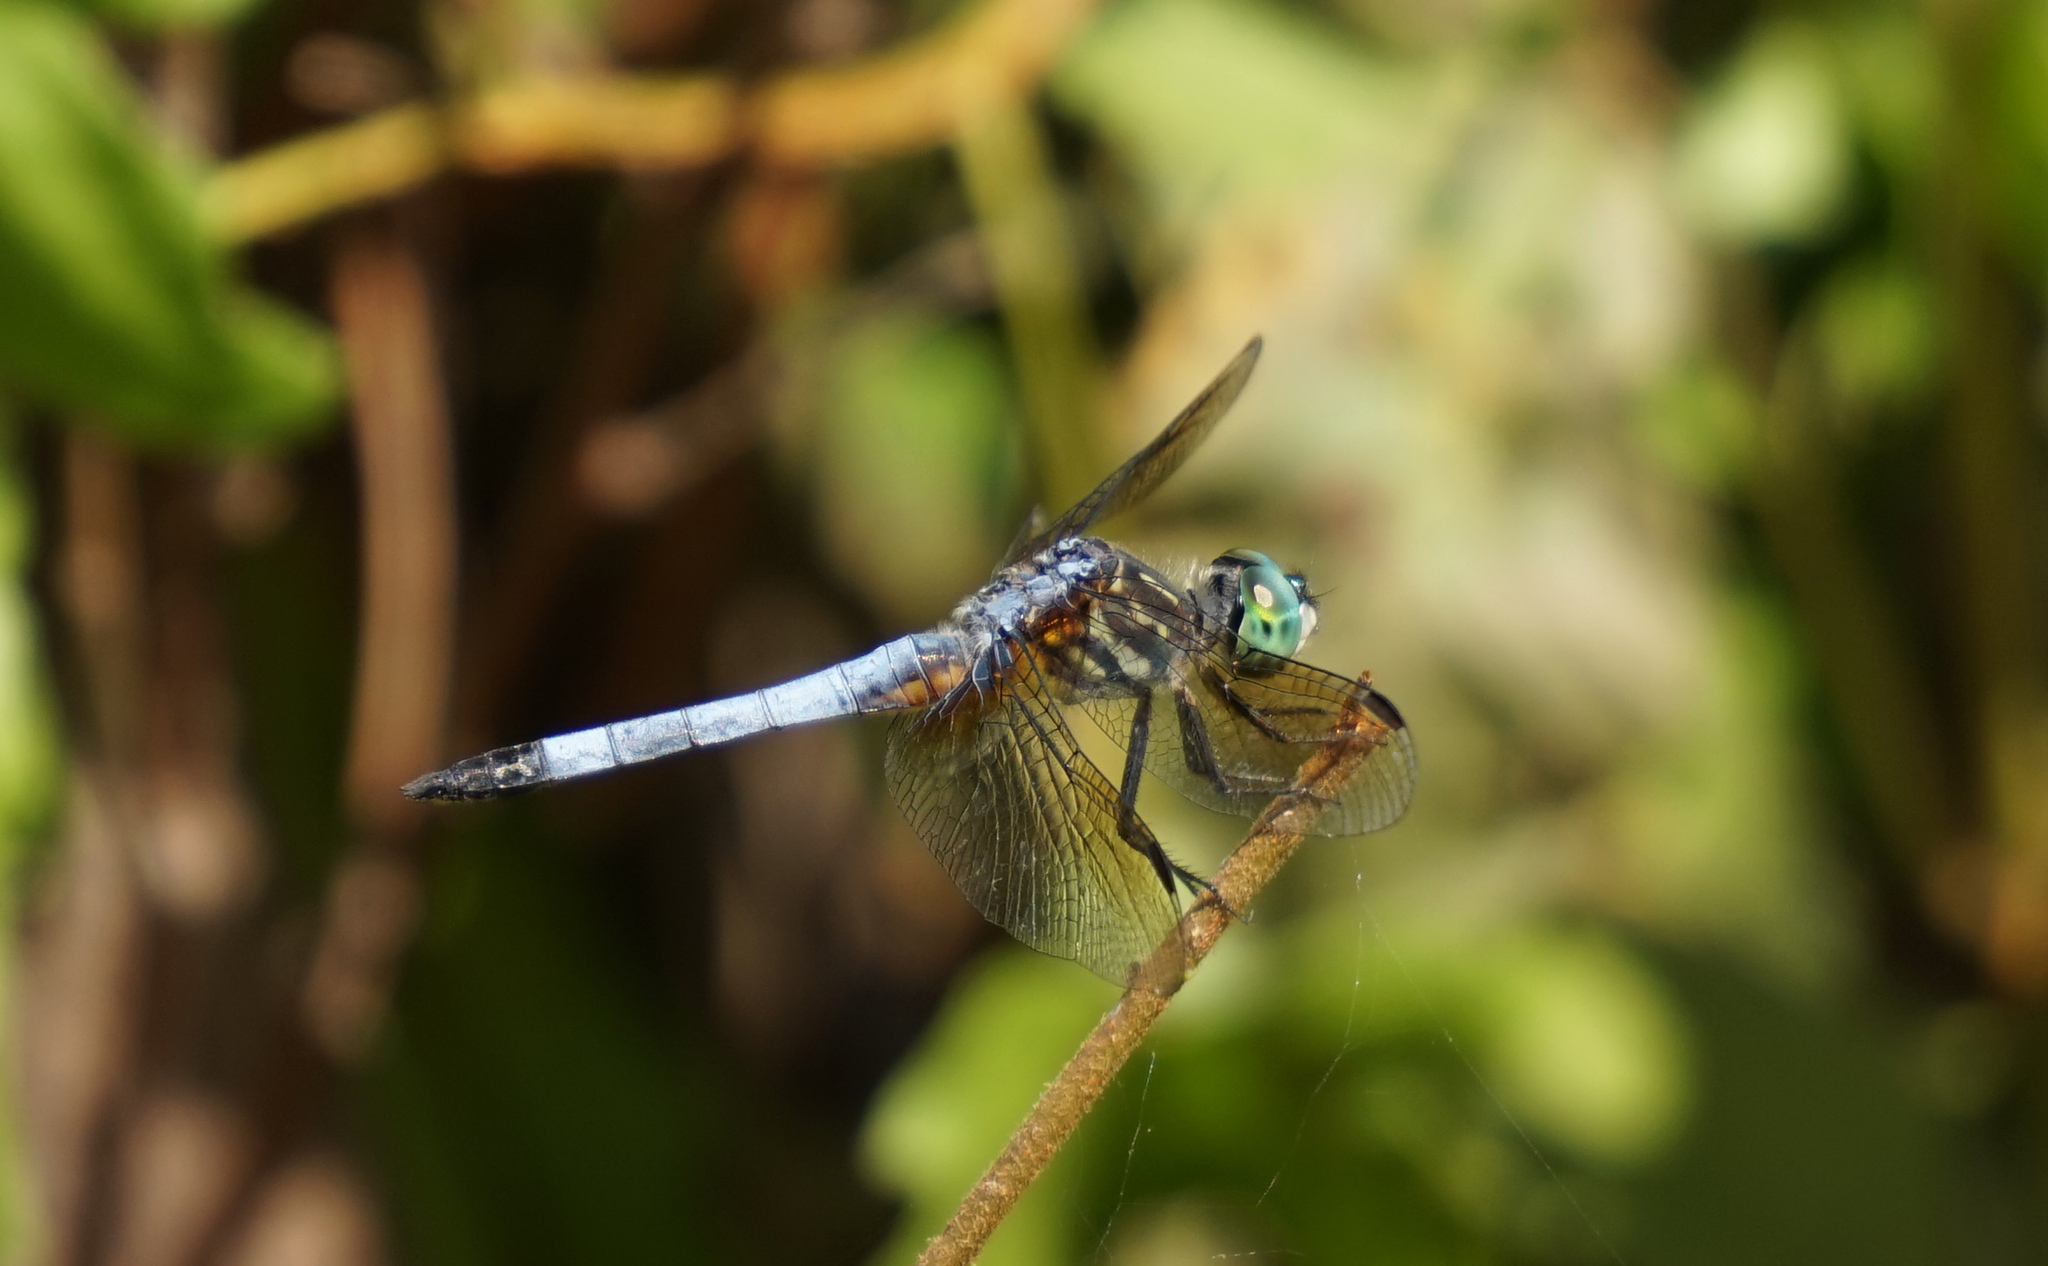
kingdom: Animalia
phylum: Arthropoda
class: Insecta
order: Odonata
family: Libellulidae
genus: Pachydiplax
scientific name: Pachydiplax longipennis
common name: Blue dasher
